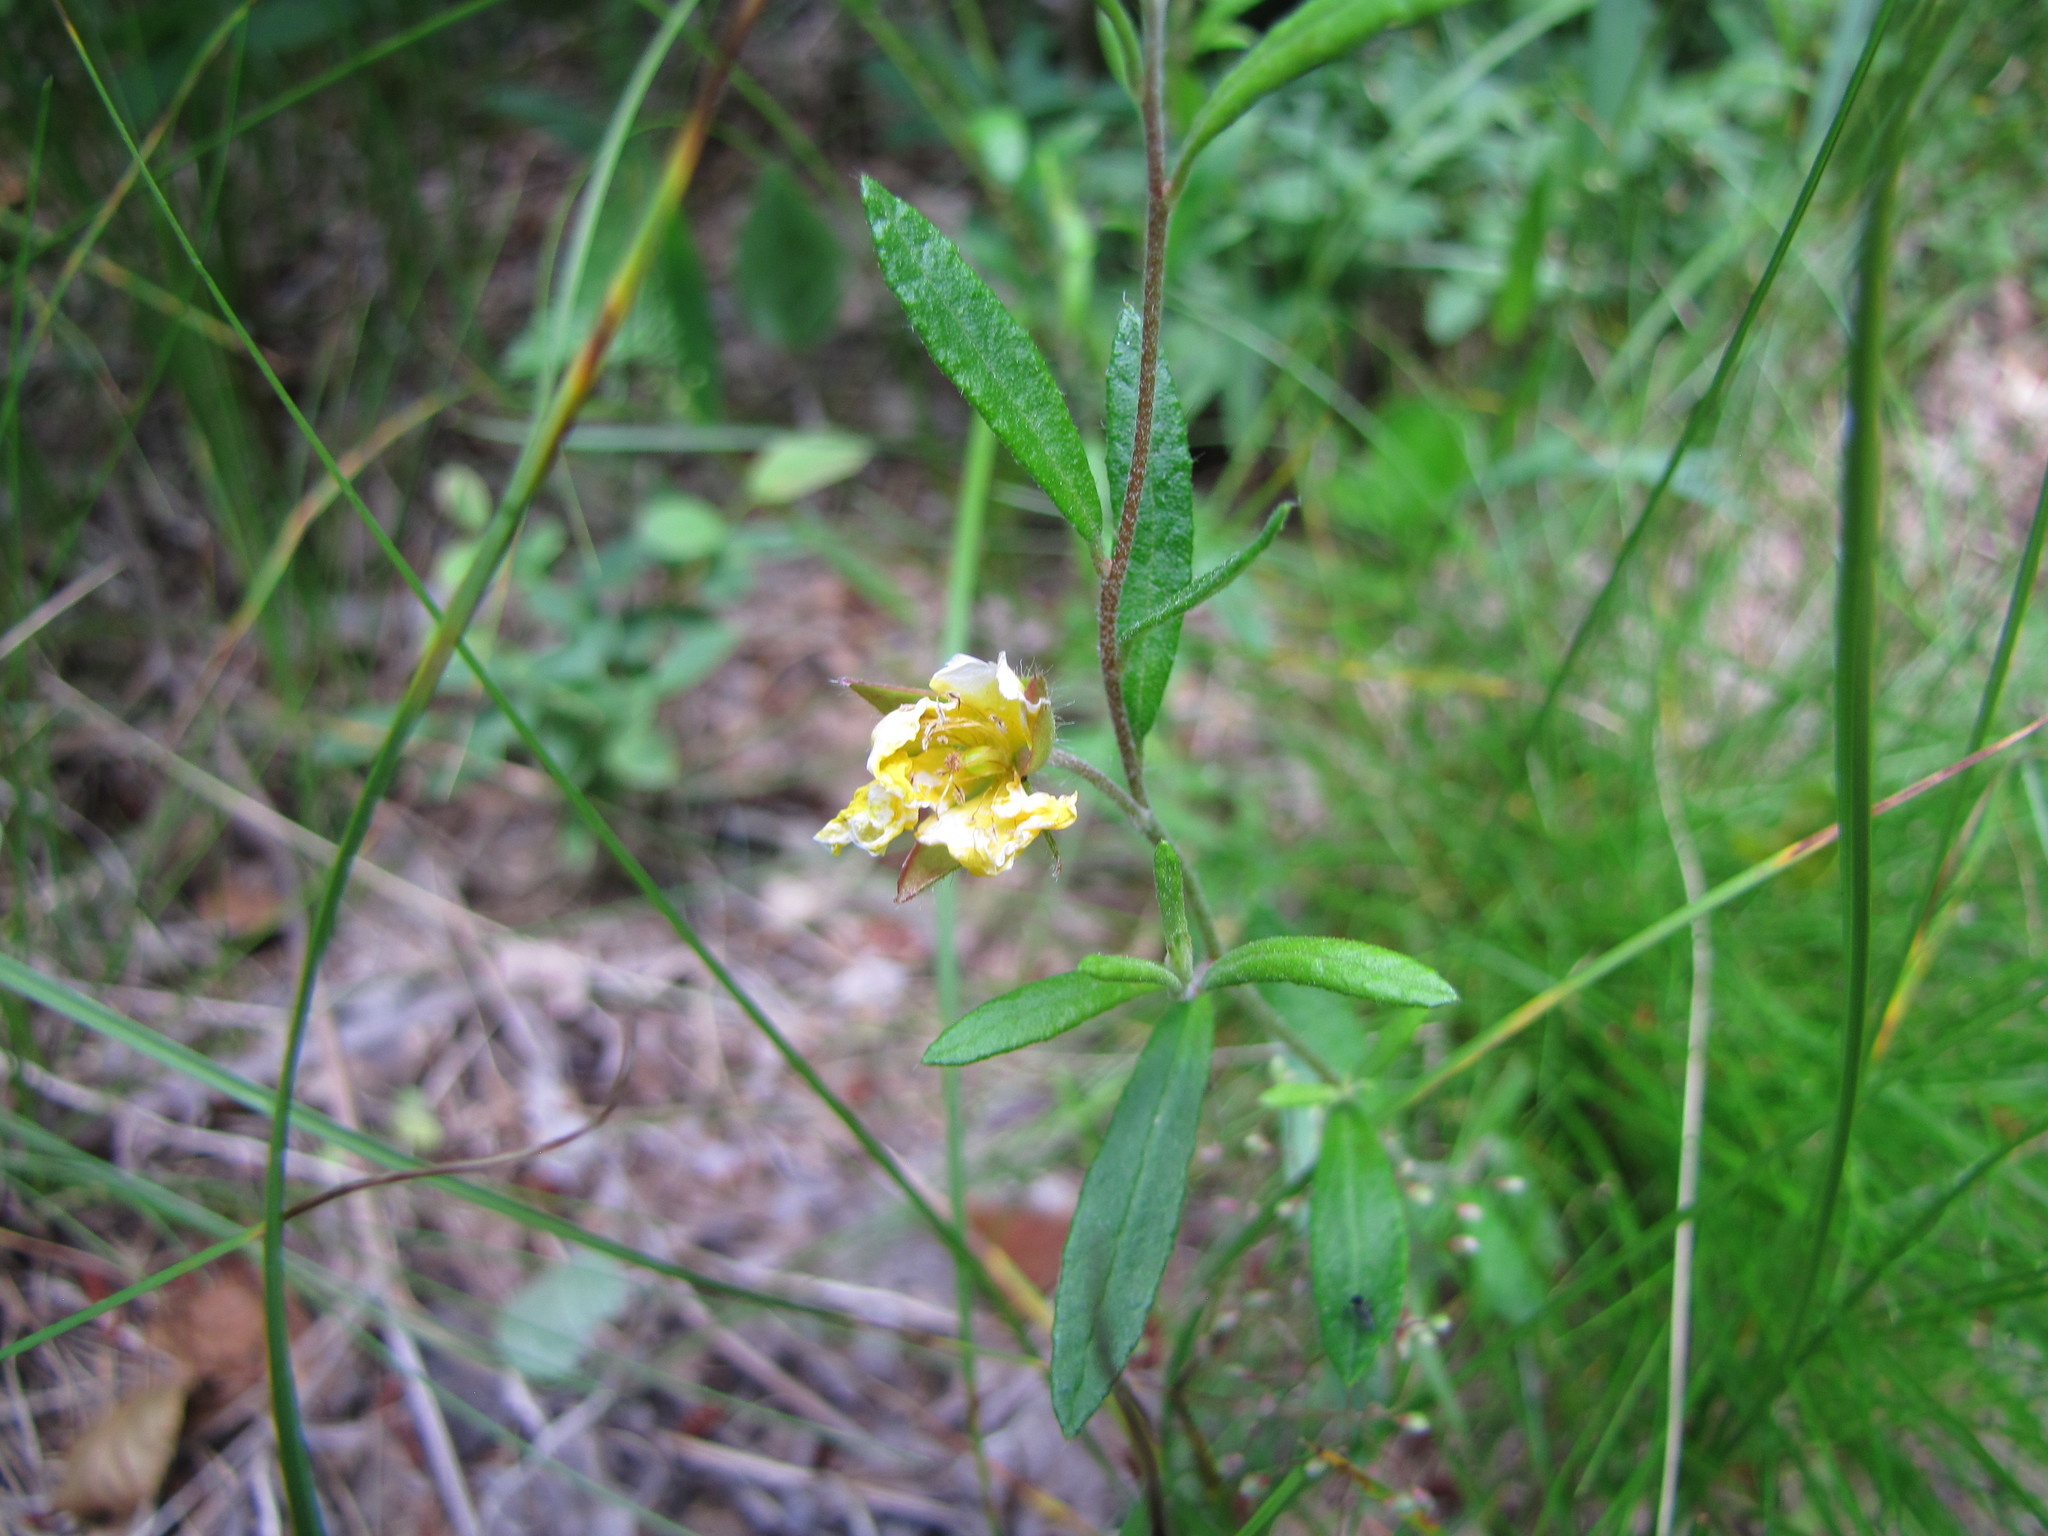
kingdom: Plantae
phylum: Tracheophyta
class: Magnoliopsida
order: Malvales
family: Cistaceae
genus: Crocanthemum
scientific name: Crocanthemum canadense
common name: Canada frostweed
